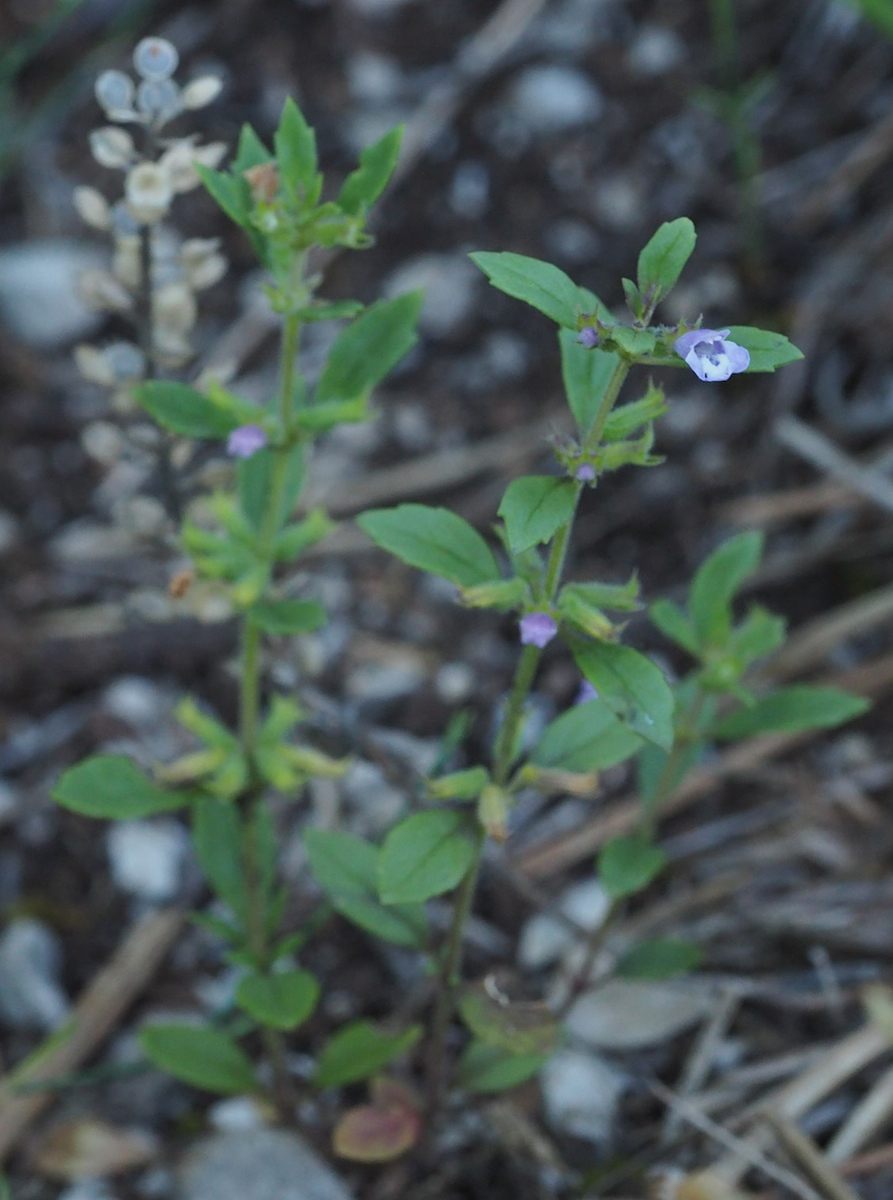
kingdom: Plantae
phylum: Tracheophyta
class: Magnoliopsida
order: Lamiales
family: Lamiaceae
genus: Clinopodium
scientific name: Clinopodium acinos
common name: Basil thyme
